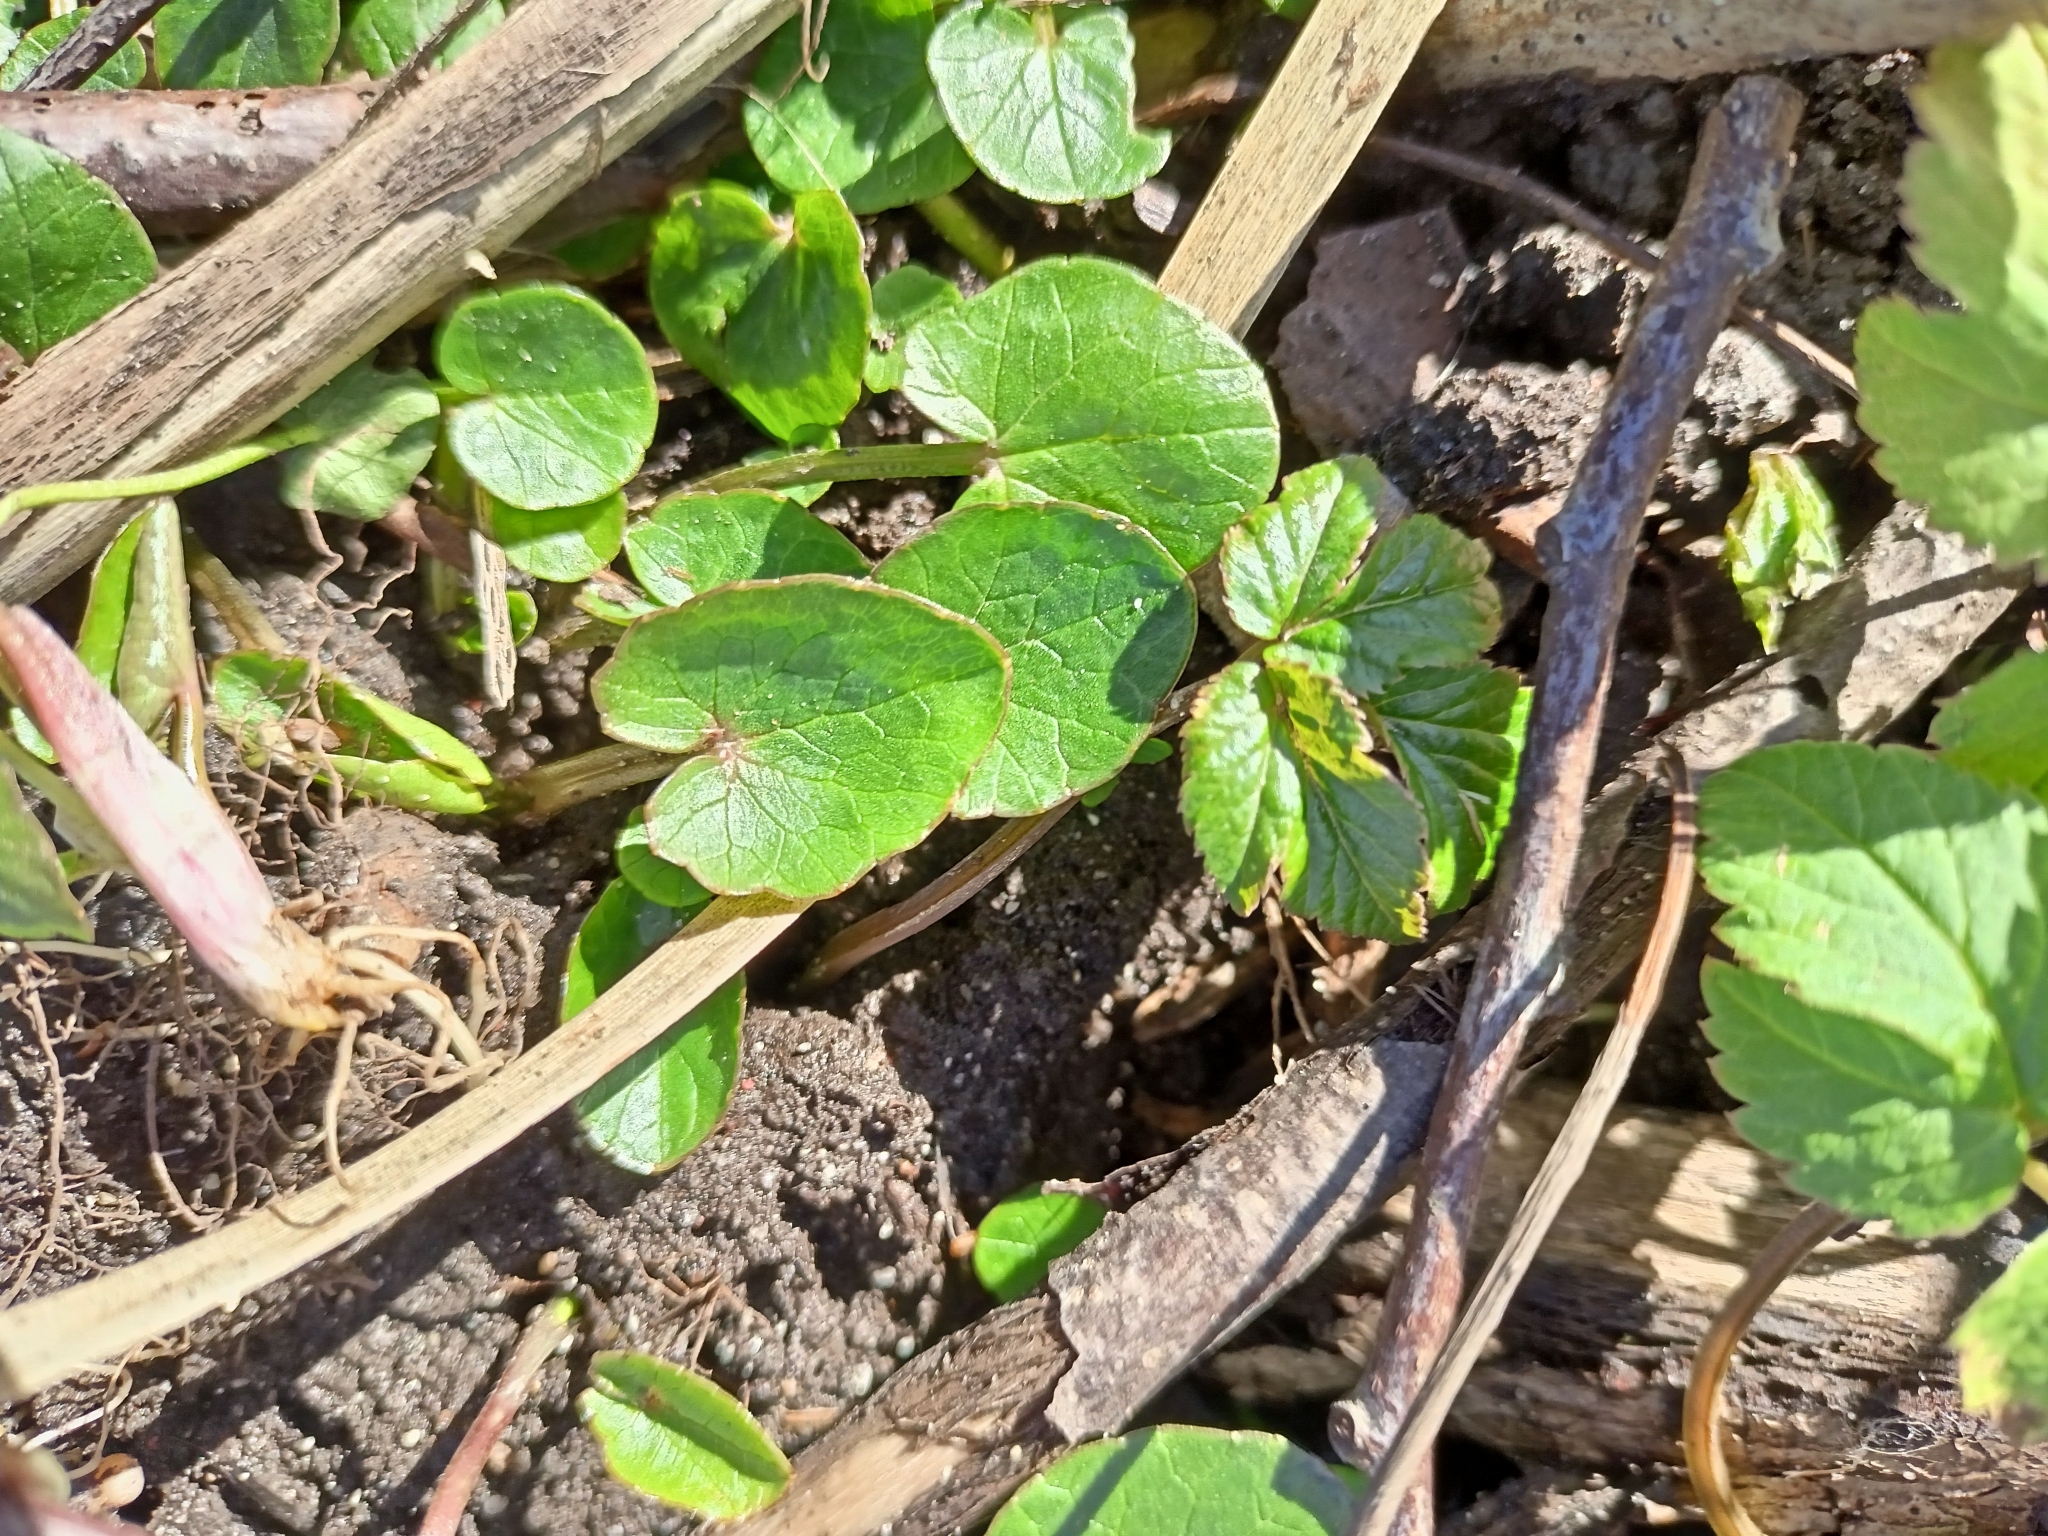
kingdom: Plantae
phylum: Tracheophyta
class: Magnoliopsida
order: Ranunculales
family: Ranunculaceae
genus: Ficaria
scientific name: Ficaria verna
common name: Lesser celandine
